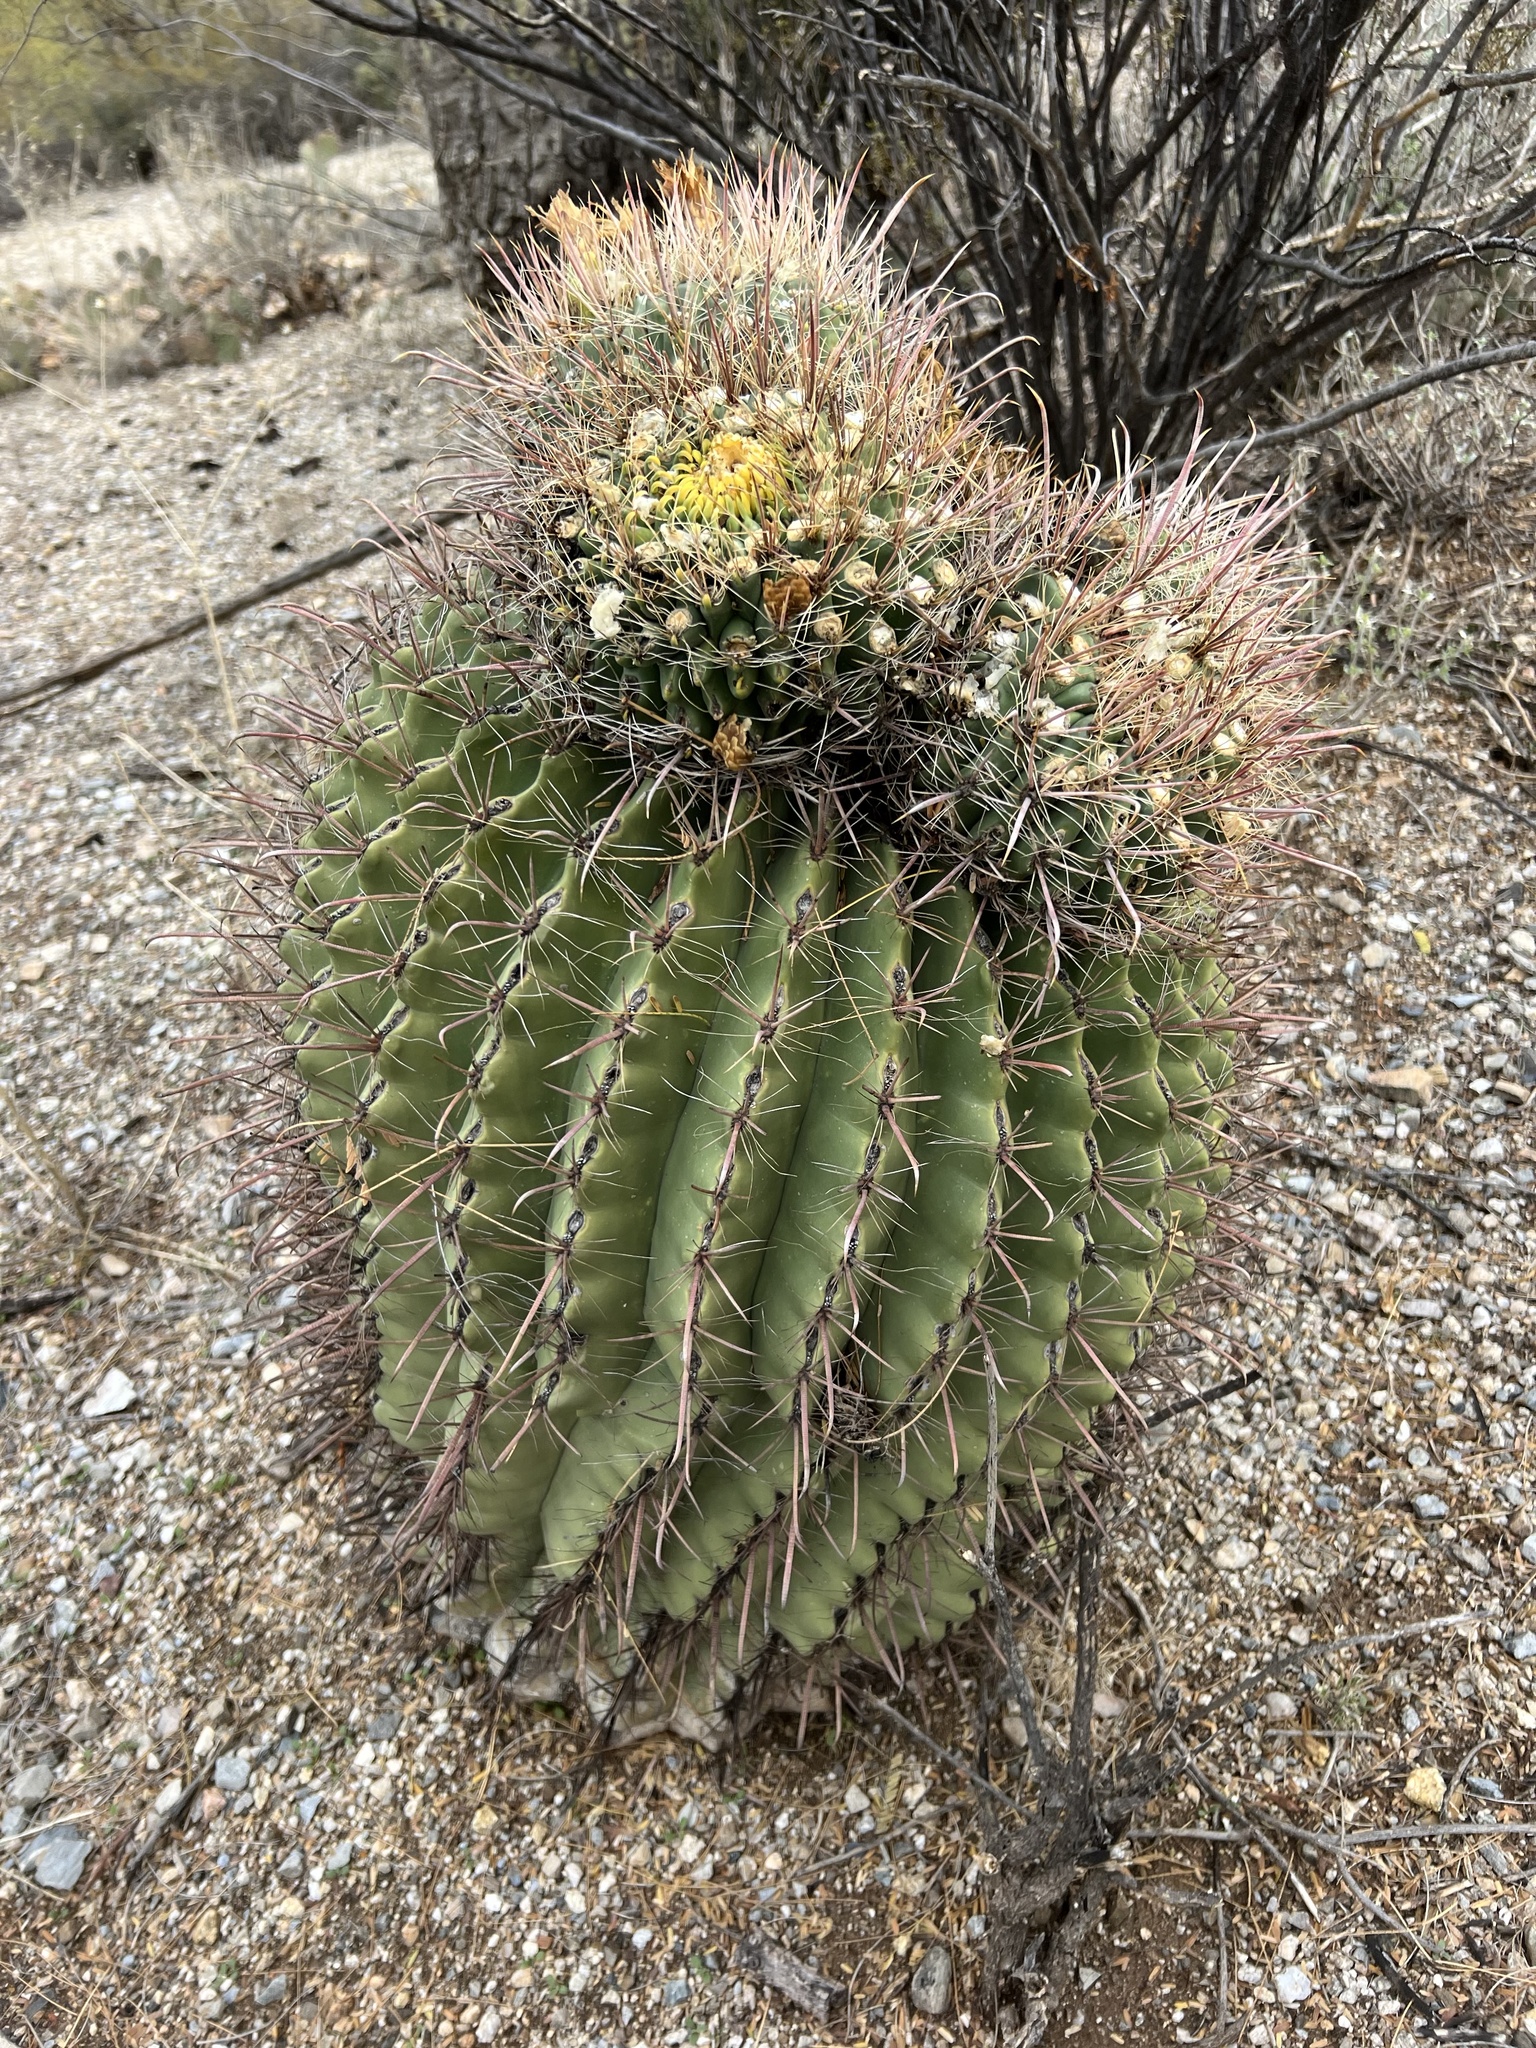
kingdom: Plantae
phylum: Tracheophyta
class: Magnoliopsida
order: Caryophyllales
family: Cactaceae
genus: Ferocactus
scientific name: Ferocactus wislizeni
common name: Candy barrel cactus
